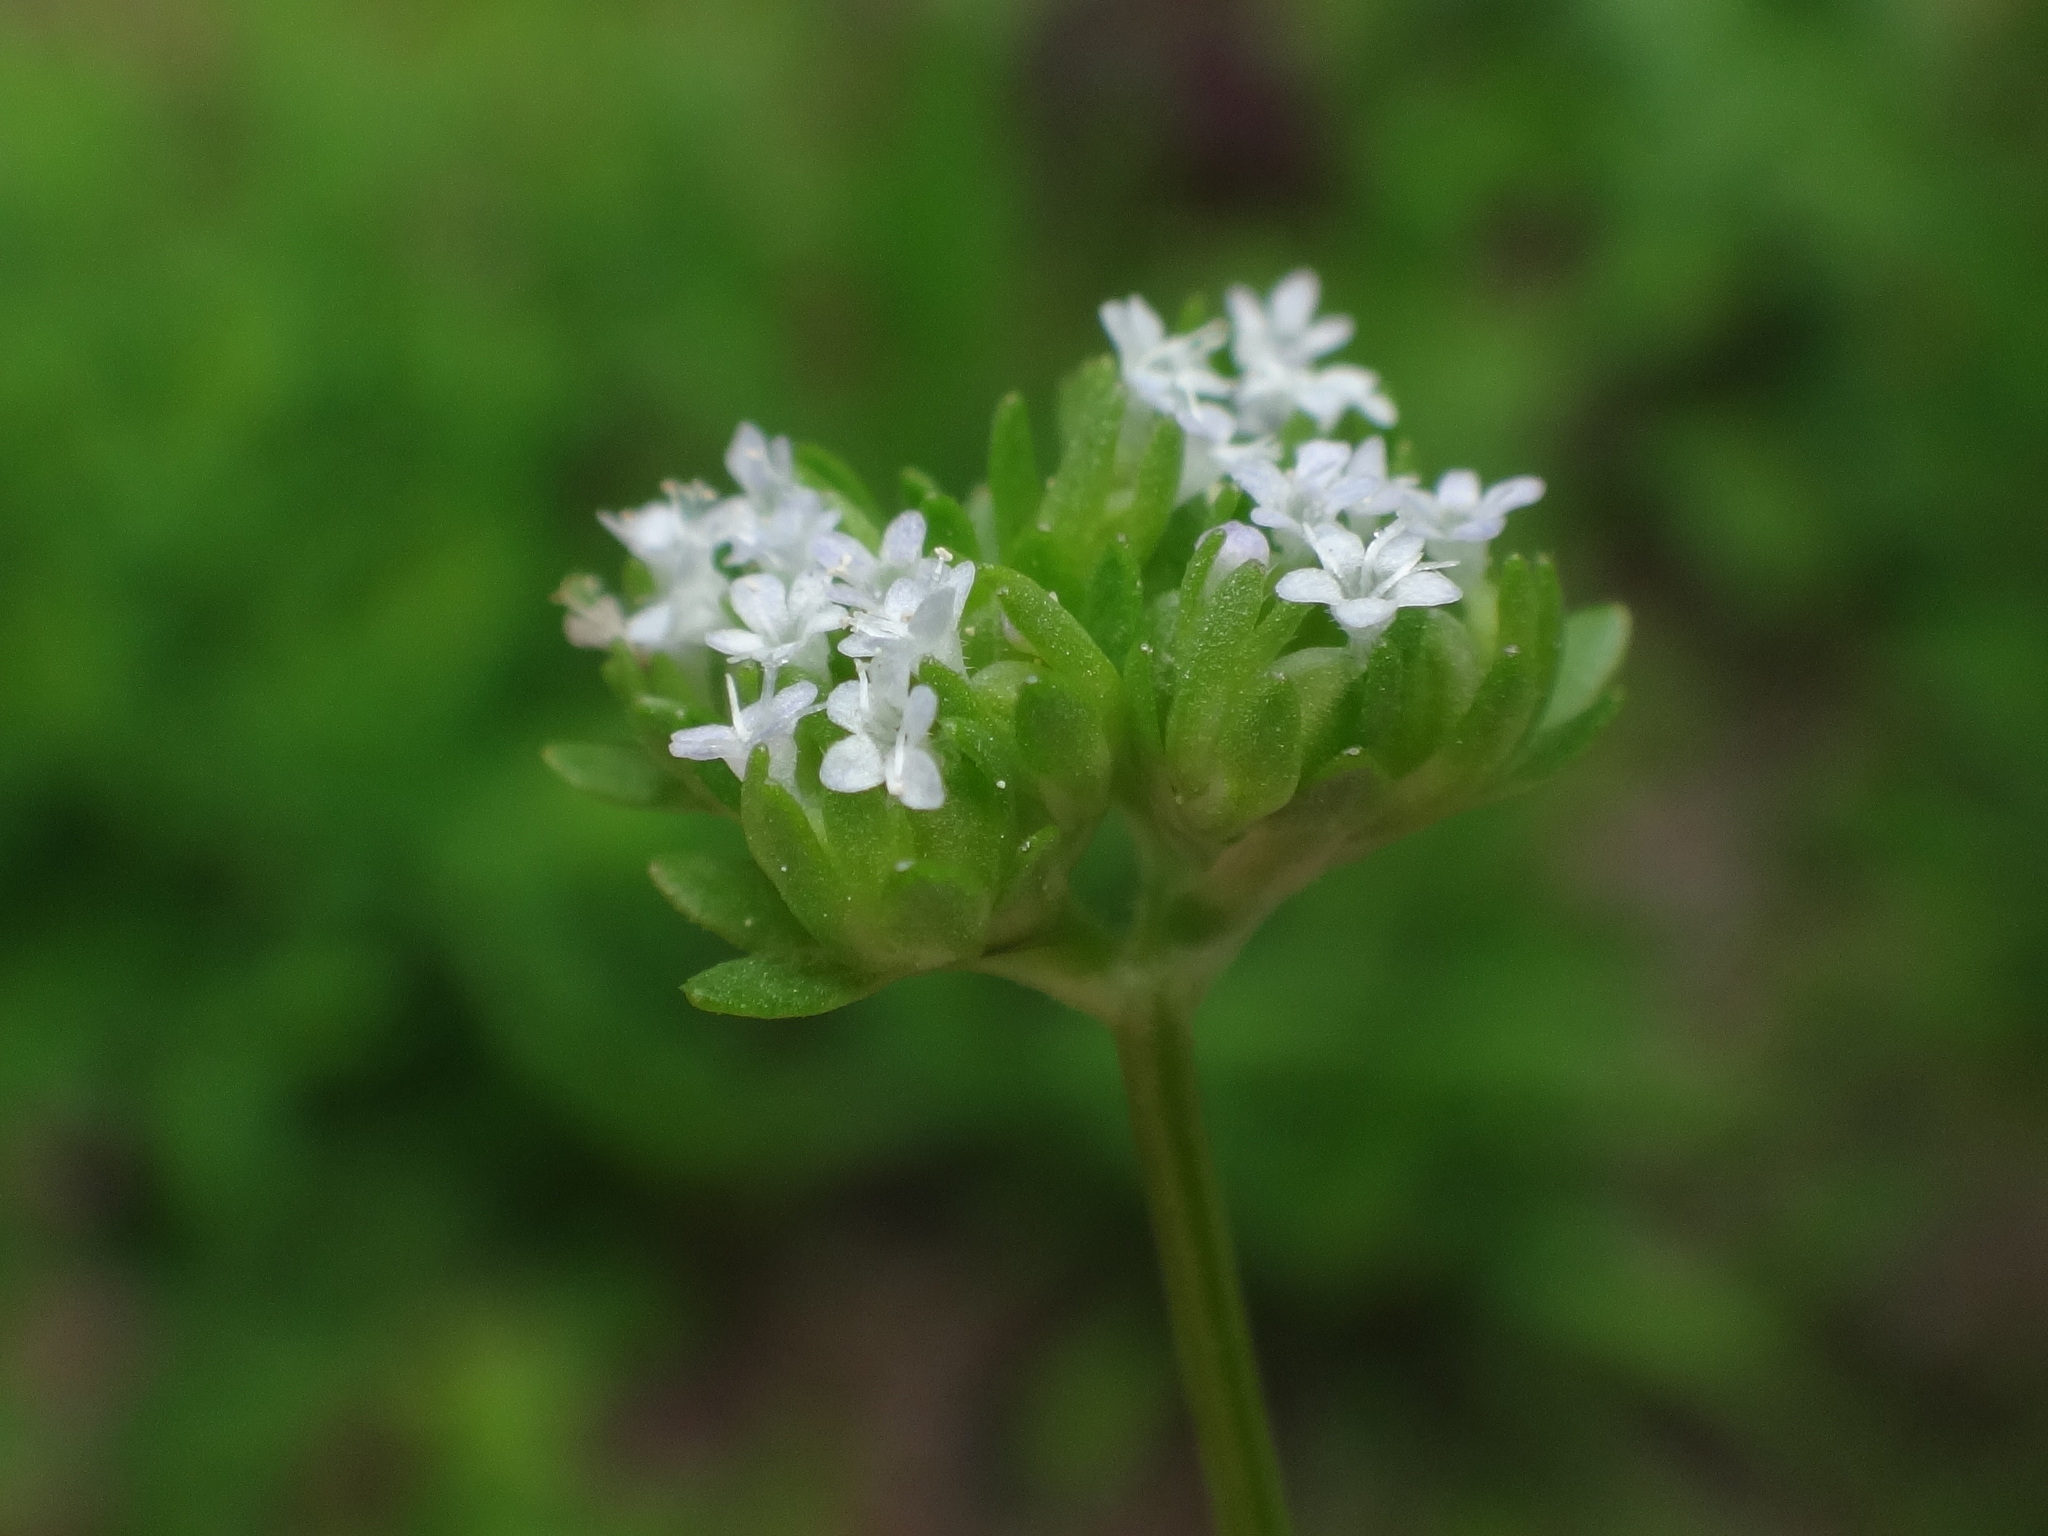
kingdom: Plantae
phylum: Tracheophyta
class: Magnoliopsida
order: Dipsacales
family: Caprifoliaceae
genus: Valerianella
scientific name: Valerianella locusta
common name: Common cornsalad
